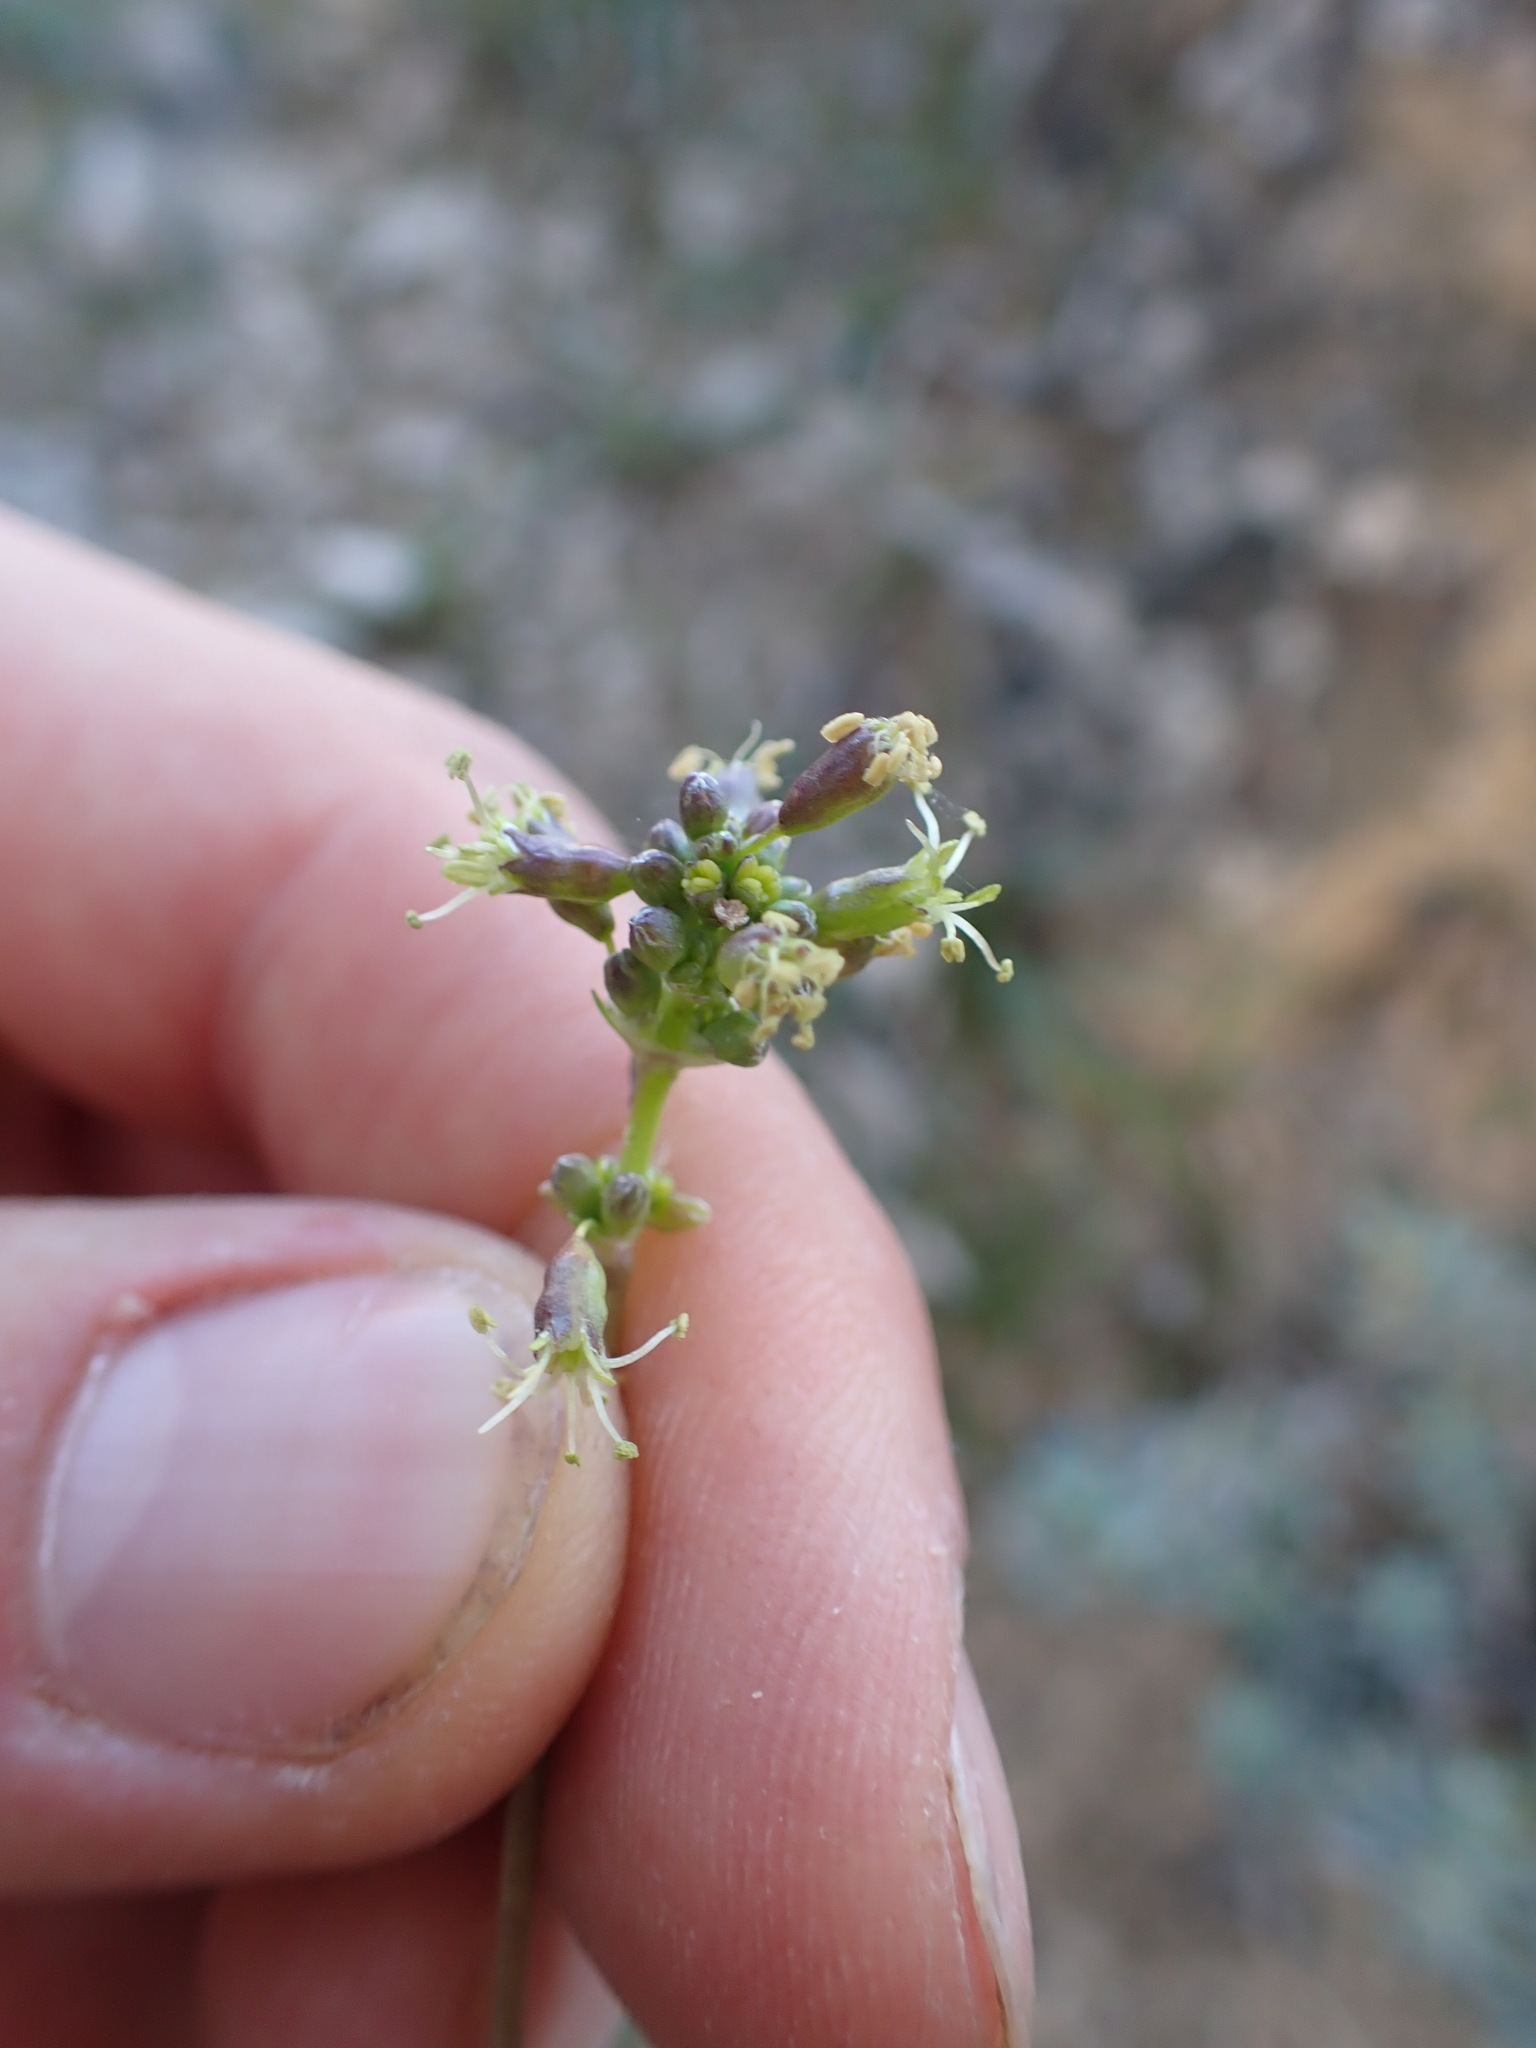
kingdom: Plantae
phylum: Tracheophyta
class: Magnoliopsida
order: Caryophyllales
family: Caryophyllaceae
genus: Silene
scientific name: Silene otites
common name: Spanish catchfly
